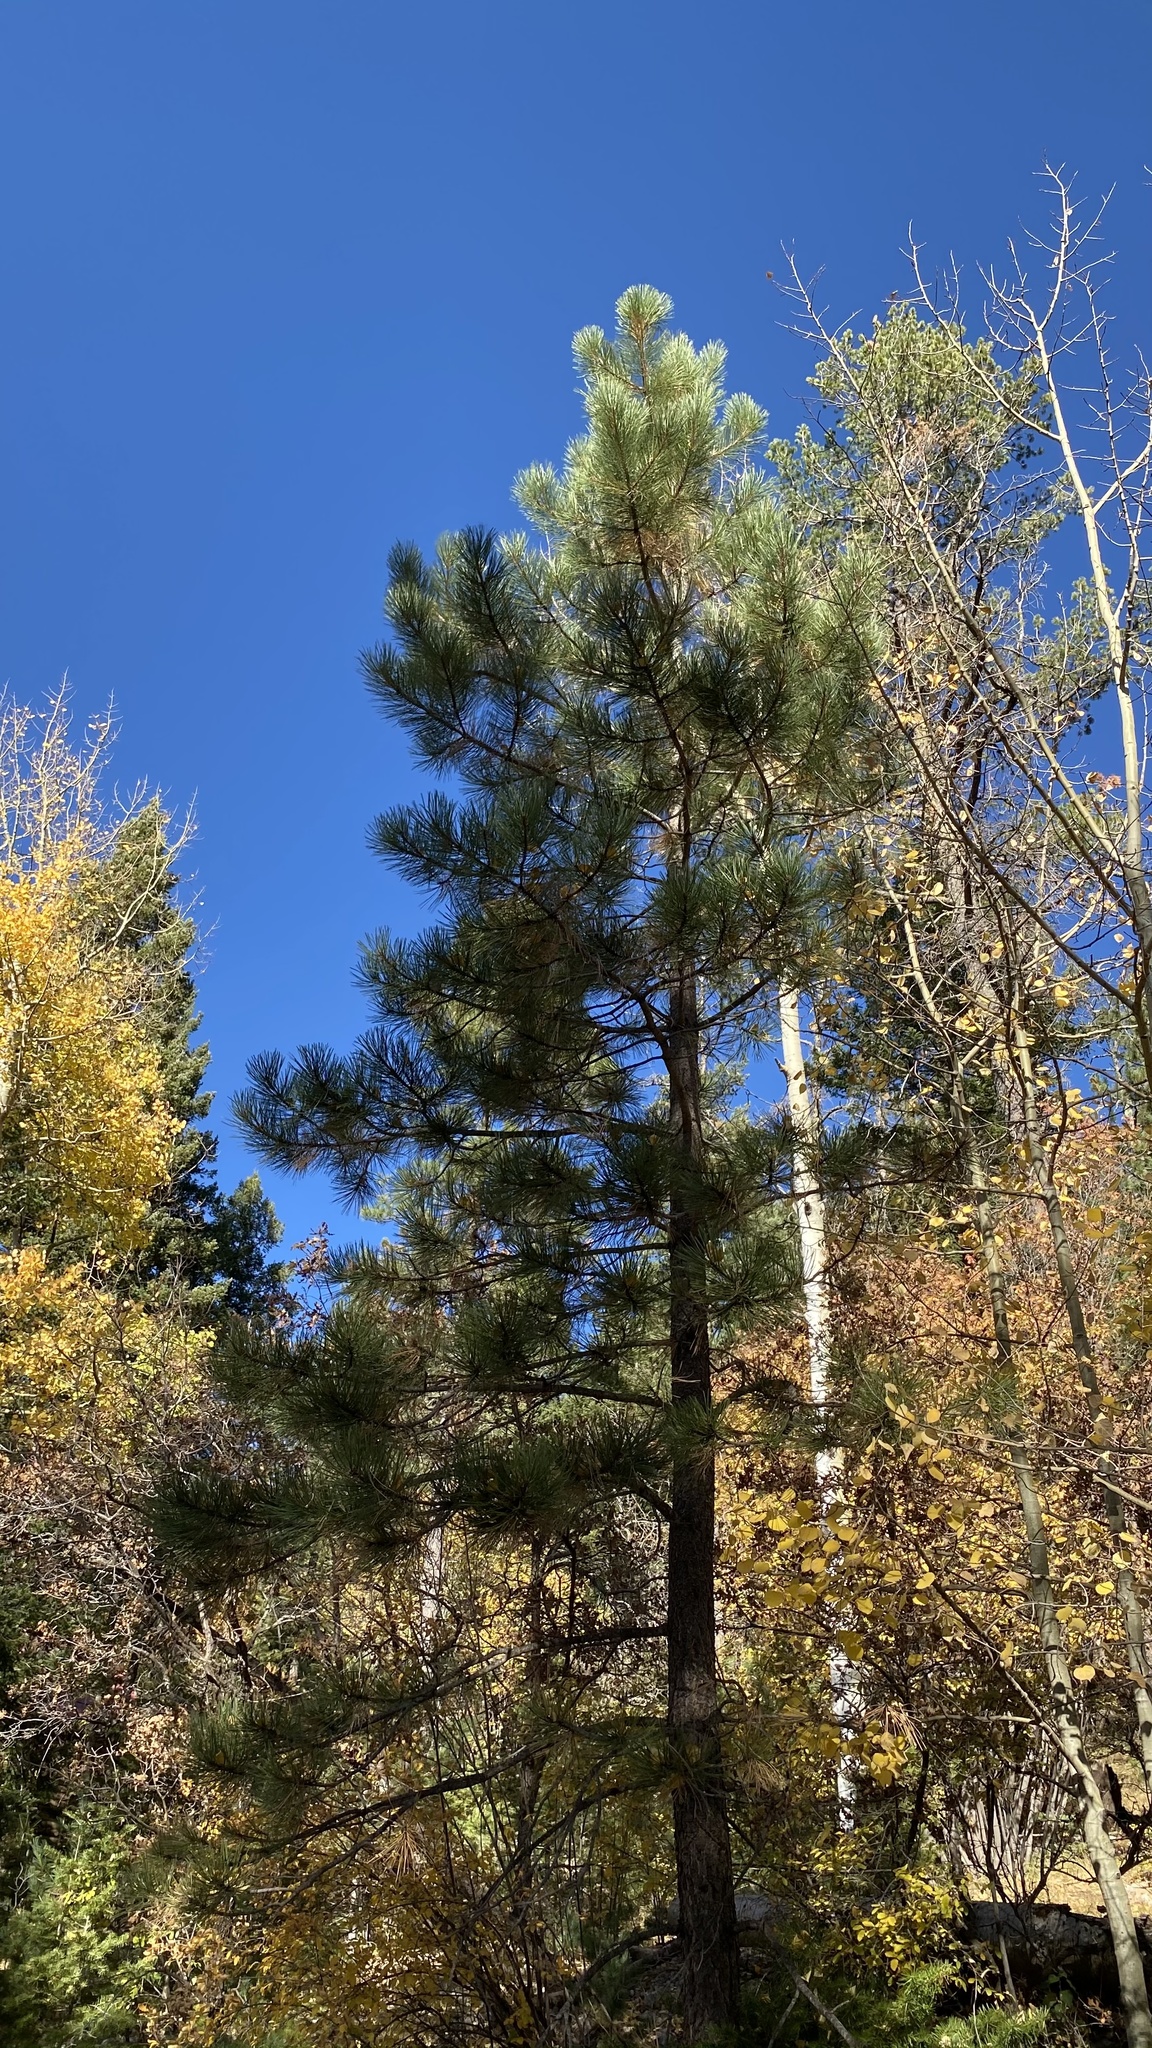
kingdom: Plantae
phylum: Tracheophyta
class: Pinopsida
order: Pinales
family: Pinaceae
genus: Pinus
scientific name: Pinus ponderosa
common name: Western yellow-pine
